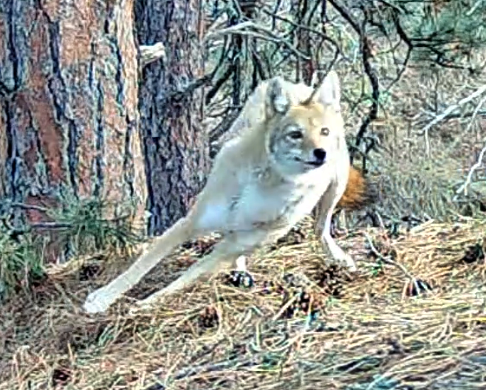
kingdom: Animalia
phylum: Chordata
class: Mammalia
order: Carnivora
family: Canidae
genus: Canis
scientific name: Canis latrans
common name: Coyote
